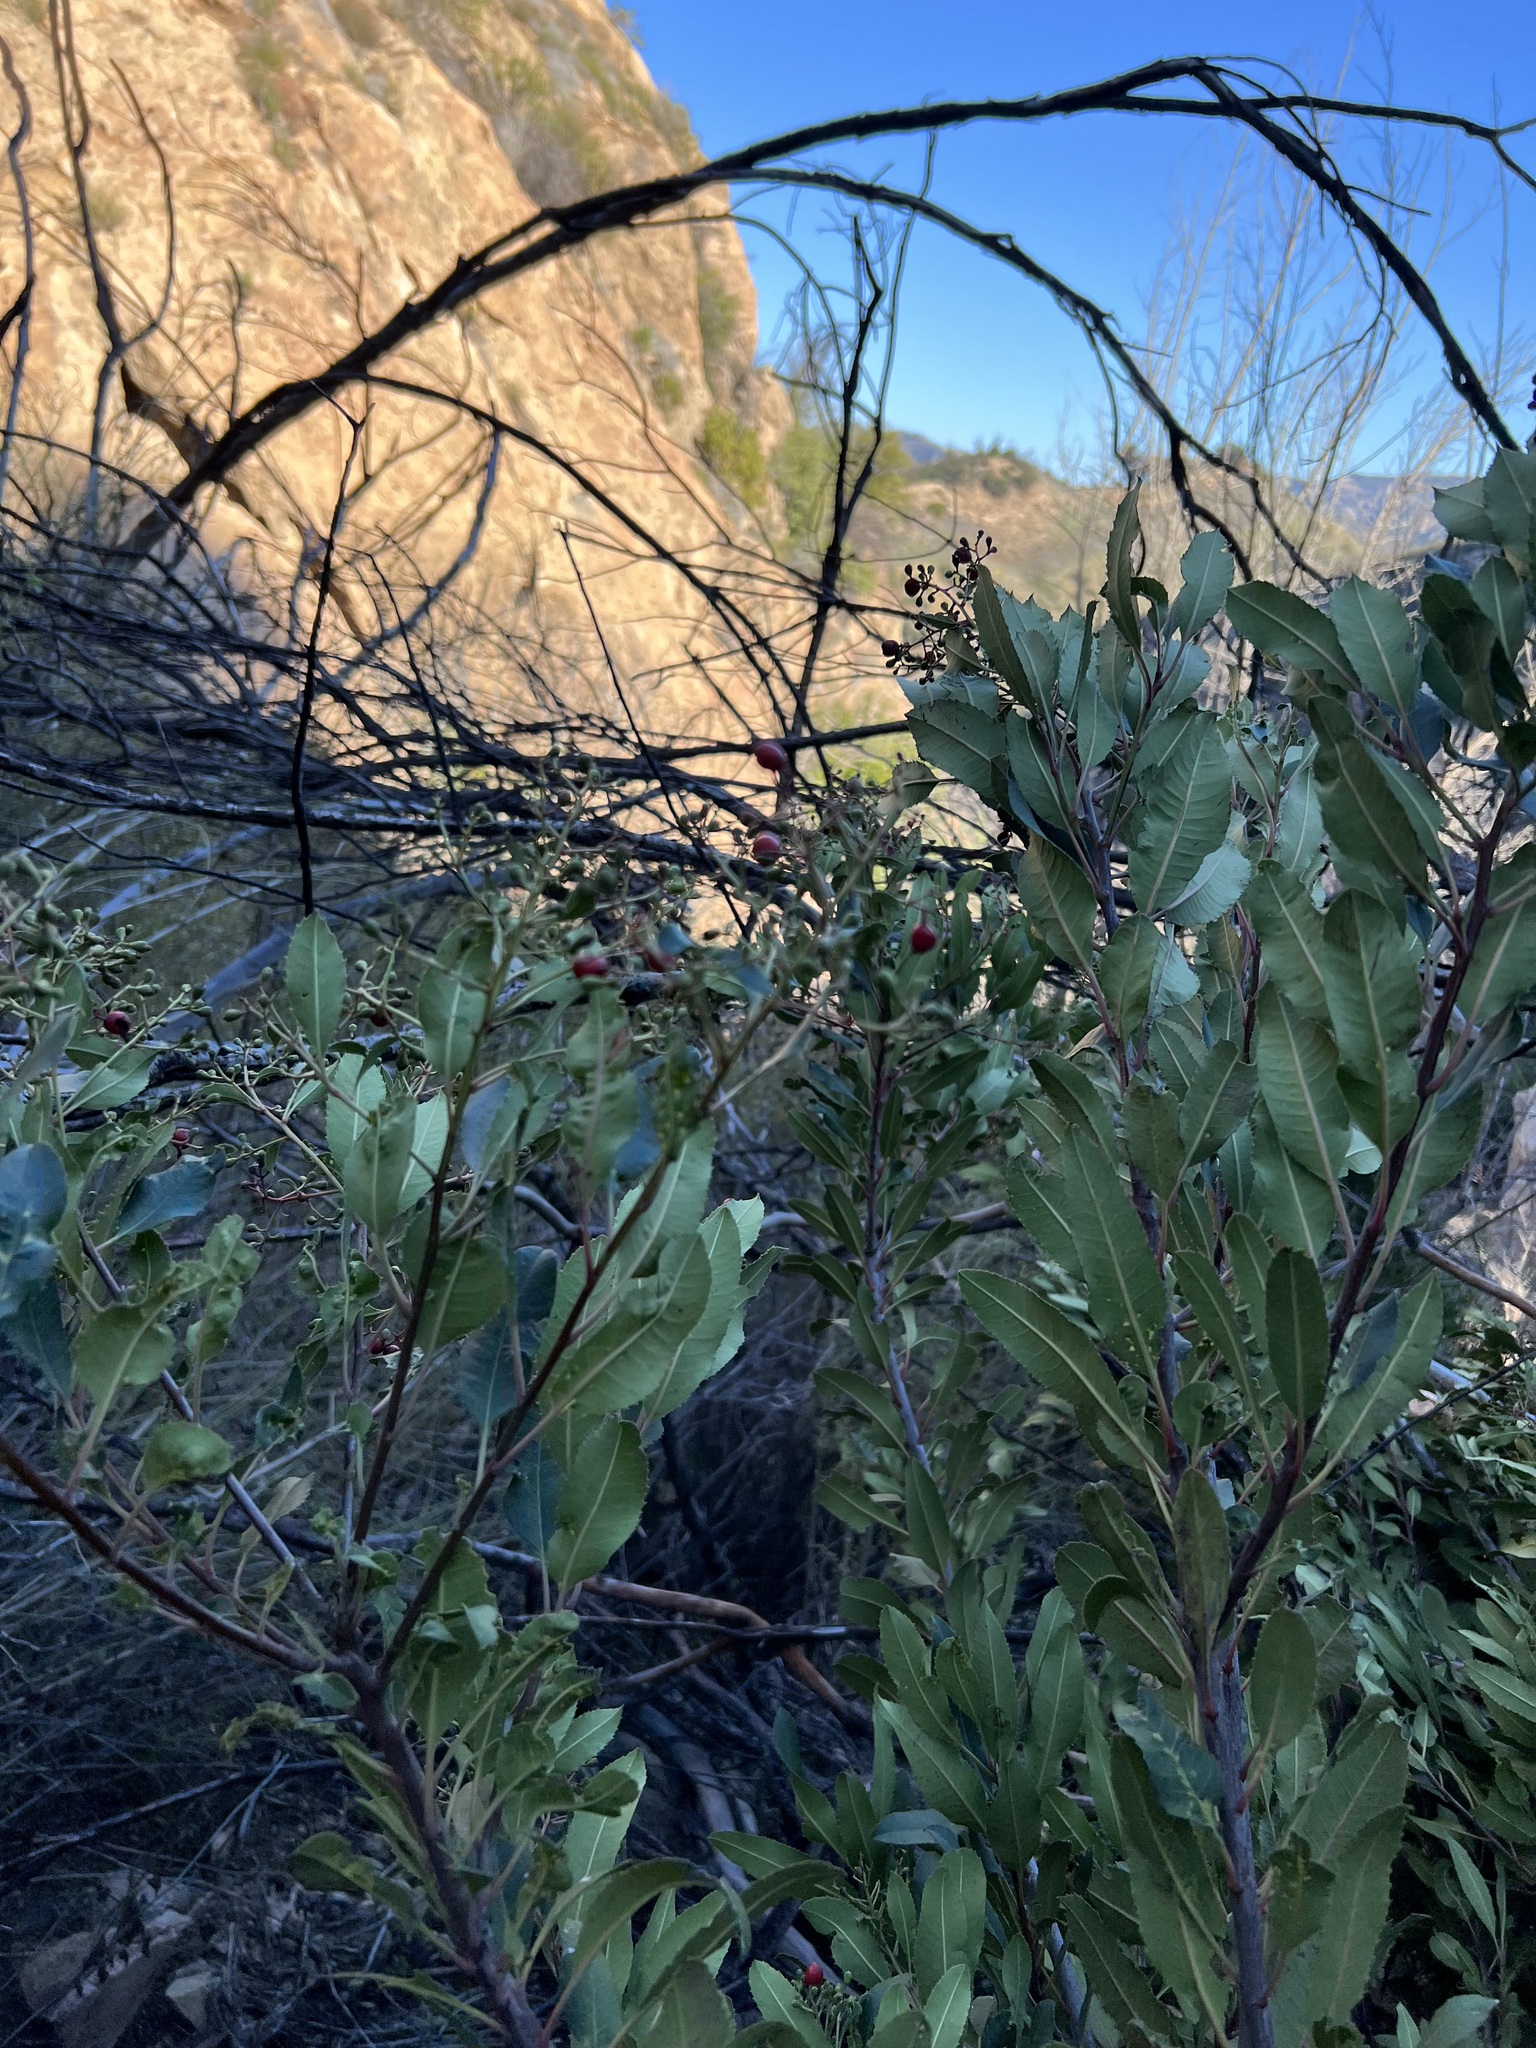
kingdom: Plantae
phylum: Tracheophyta
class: Magnoliopsida
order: Rosales
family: Rosaceae
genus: Heteromeles
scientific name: Heteromeles arbutifolia
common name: California-holly
